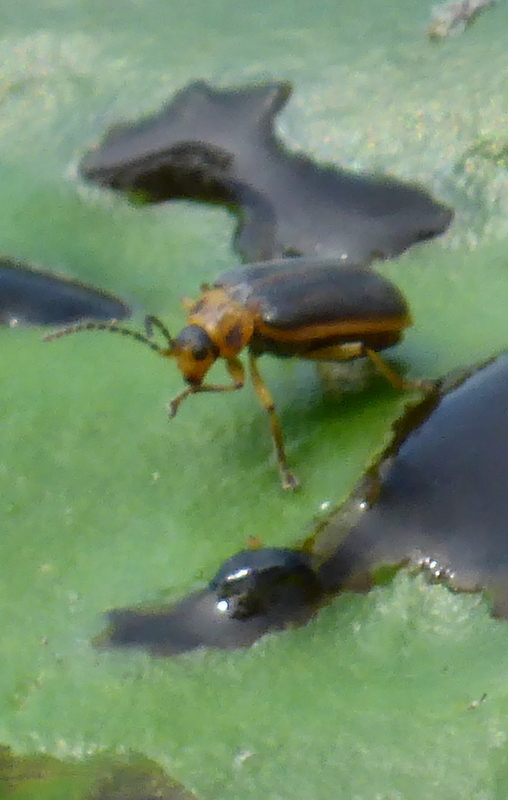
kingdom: Animalia
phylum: Arthropoda
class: Insecta
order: Coleoptera
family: Chrysomelidae
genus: Galerucella
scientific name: Galerucella nymphaeae
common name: Leaf beetle
